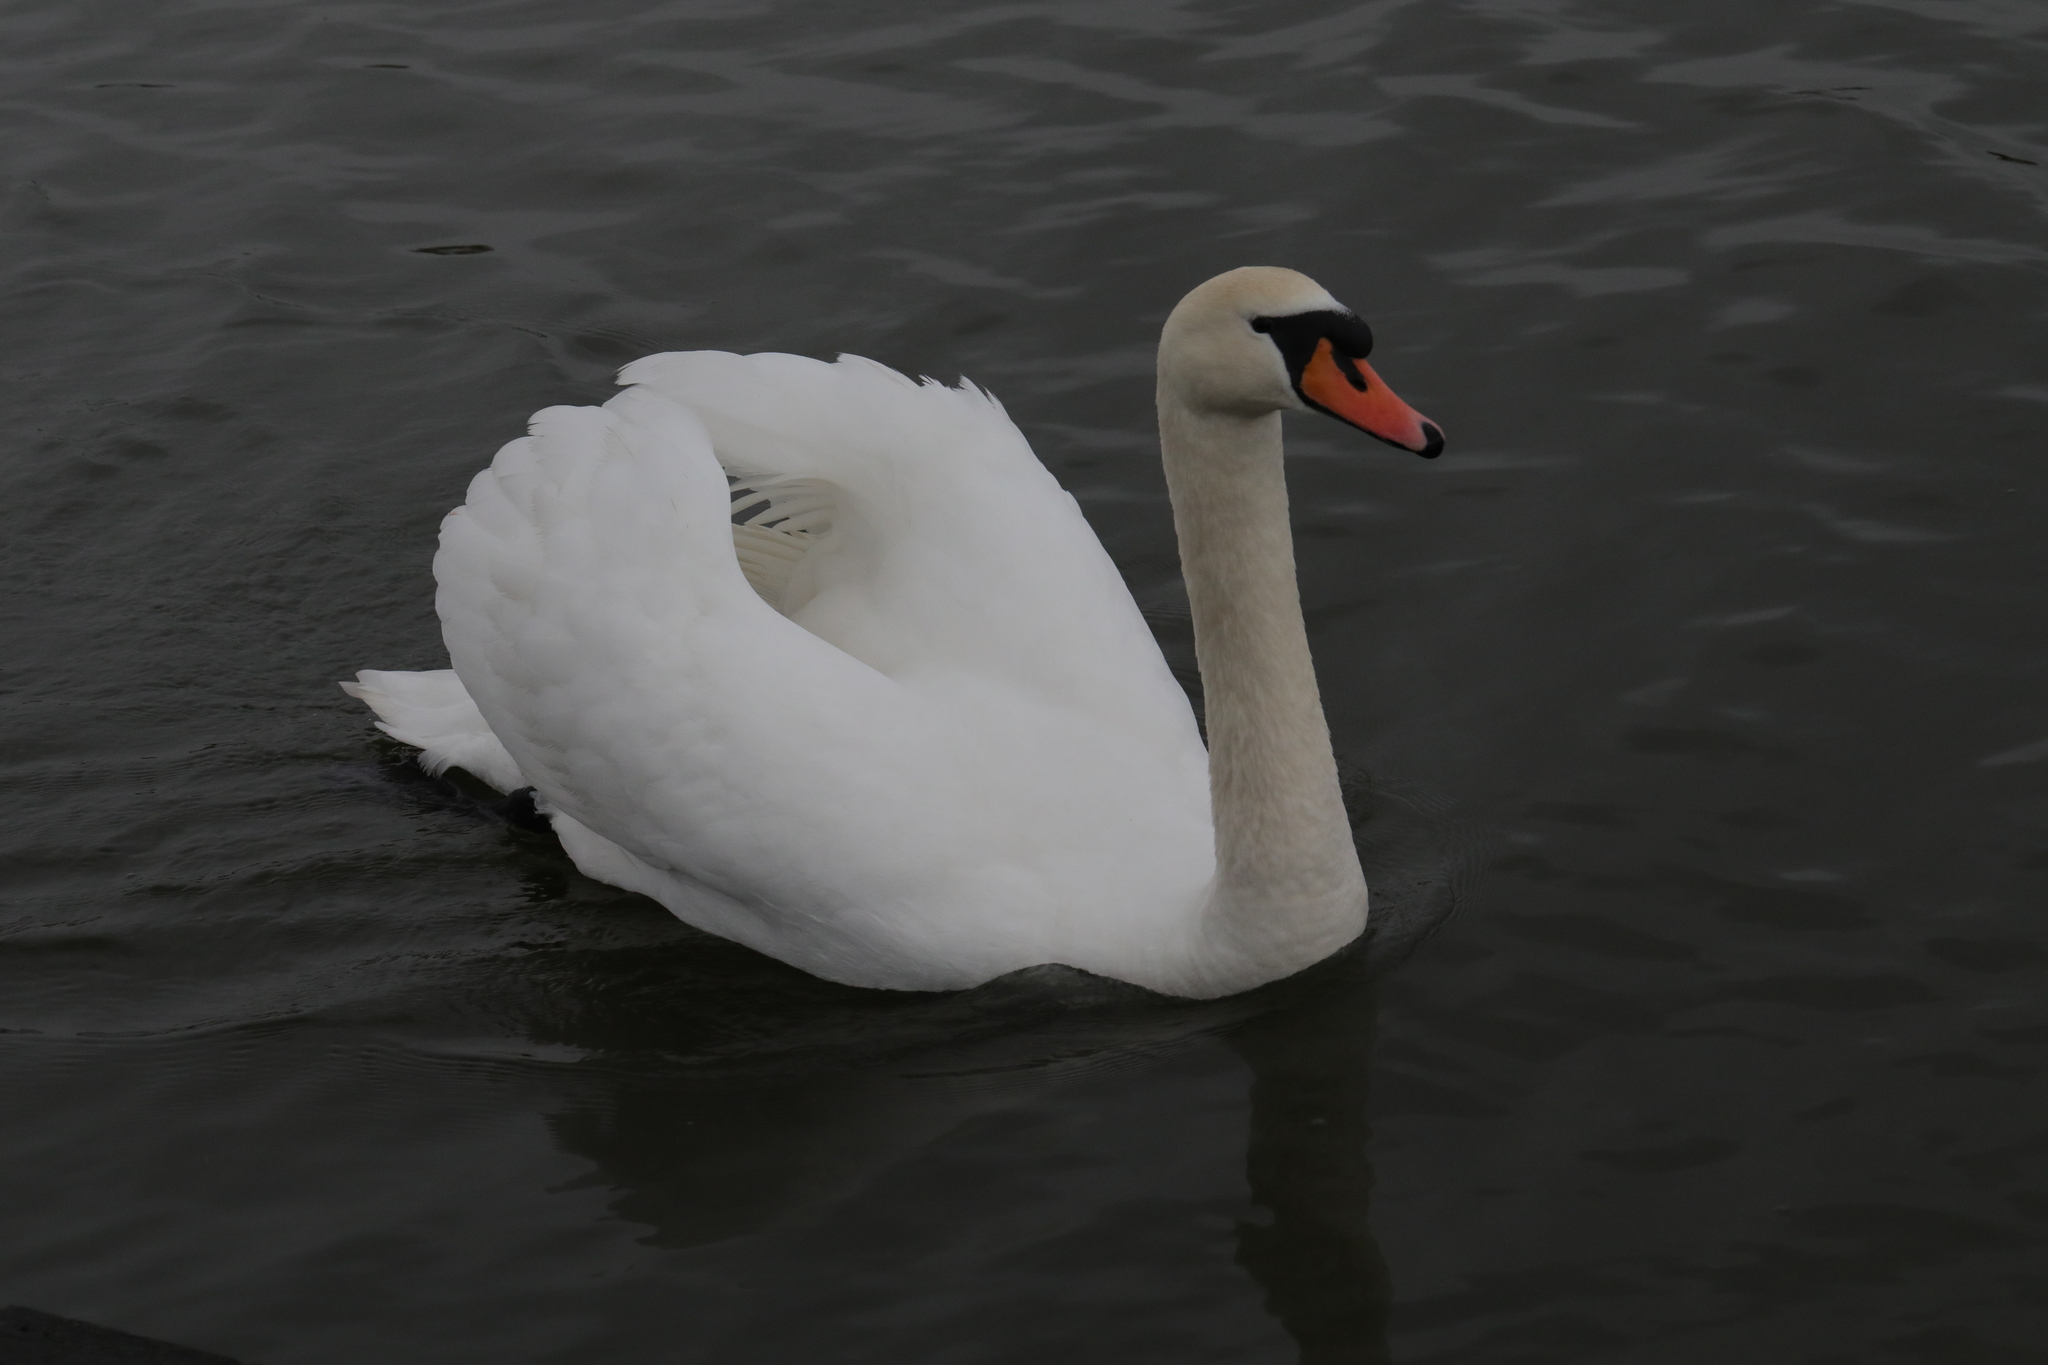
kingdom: Animalia
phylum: Chordata
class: Aves
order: Anseriformes
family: Anatidae
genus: Cygnus
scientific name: Cygnus olor
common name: Mute swan
